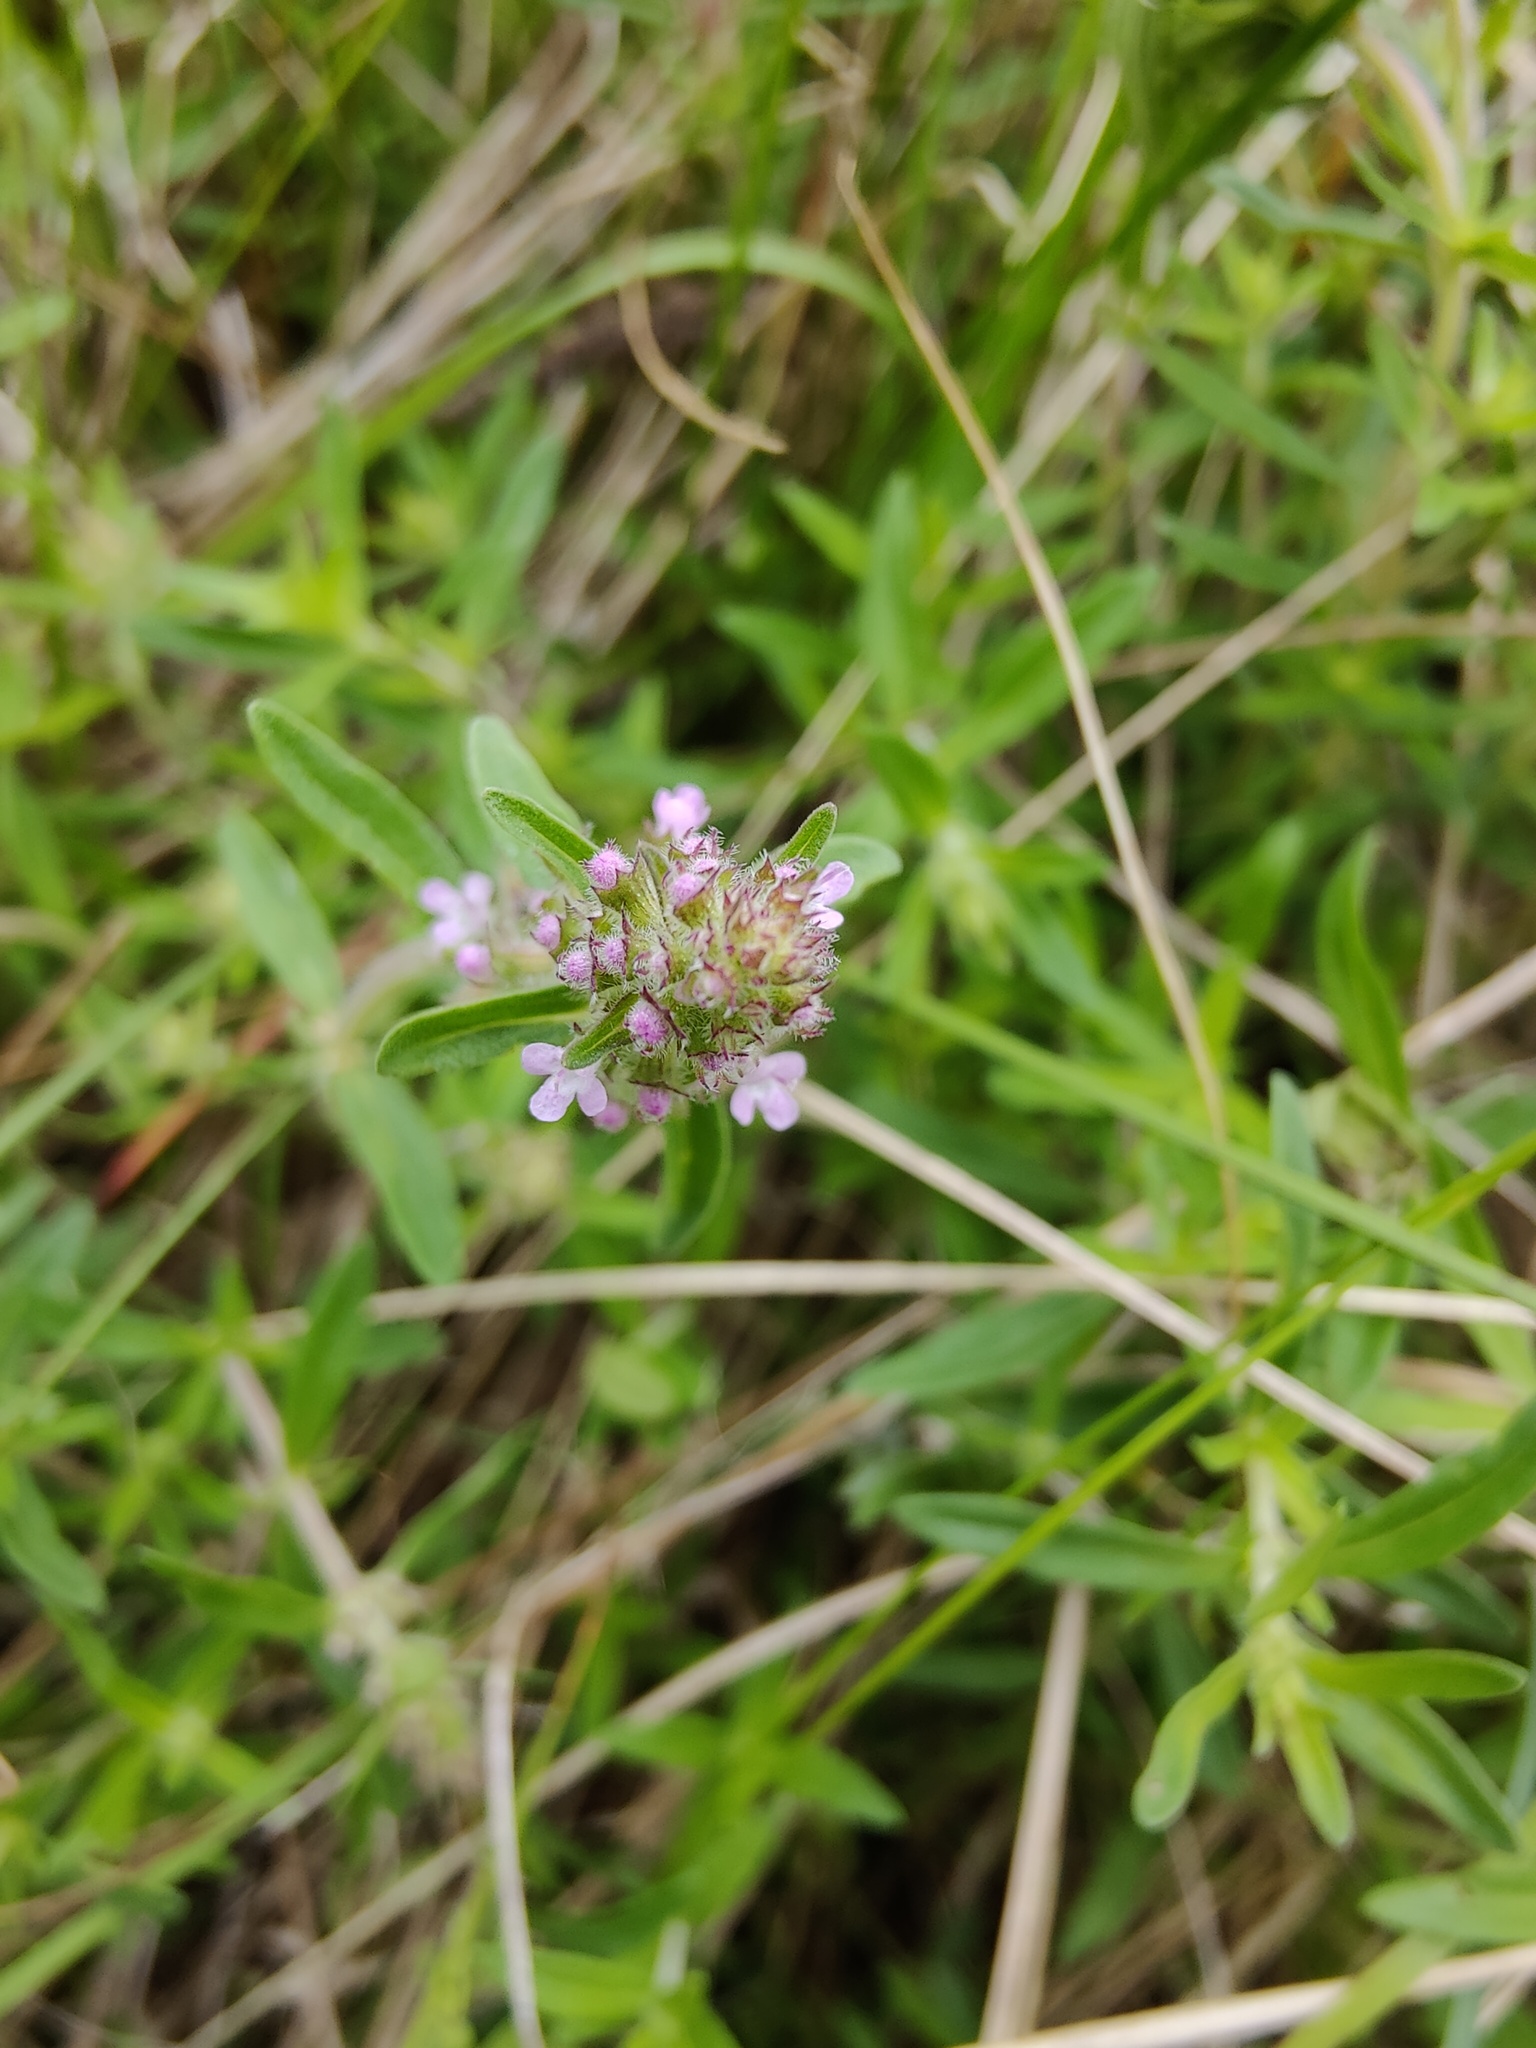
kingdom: Plantae
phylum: Tracheophyta
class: Magnoliopsida
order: Lamiales
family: Lamiaceae
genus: Thymus
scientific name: Thymus pannonicus
